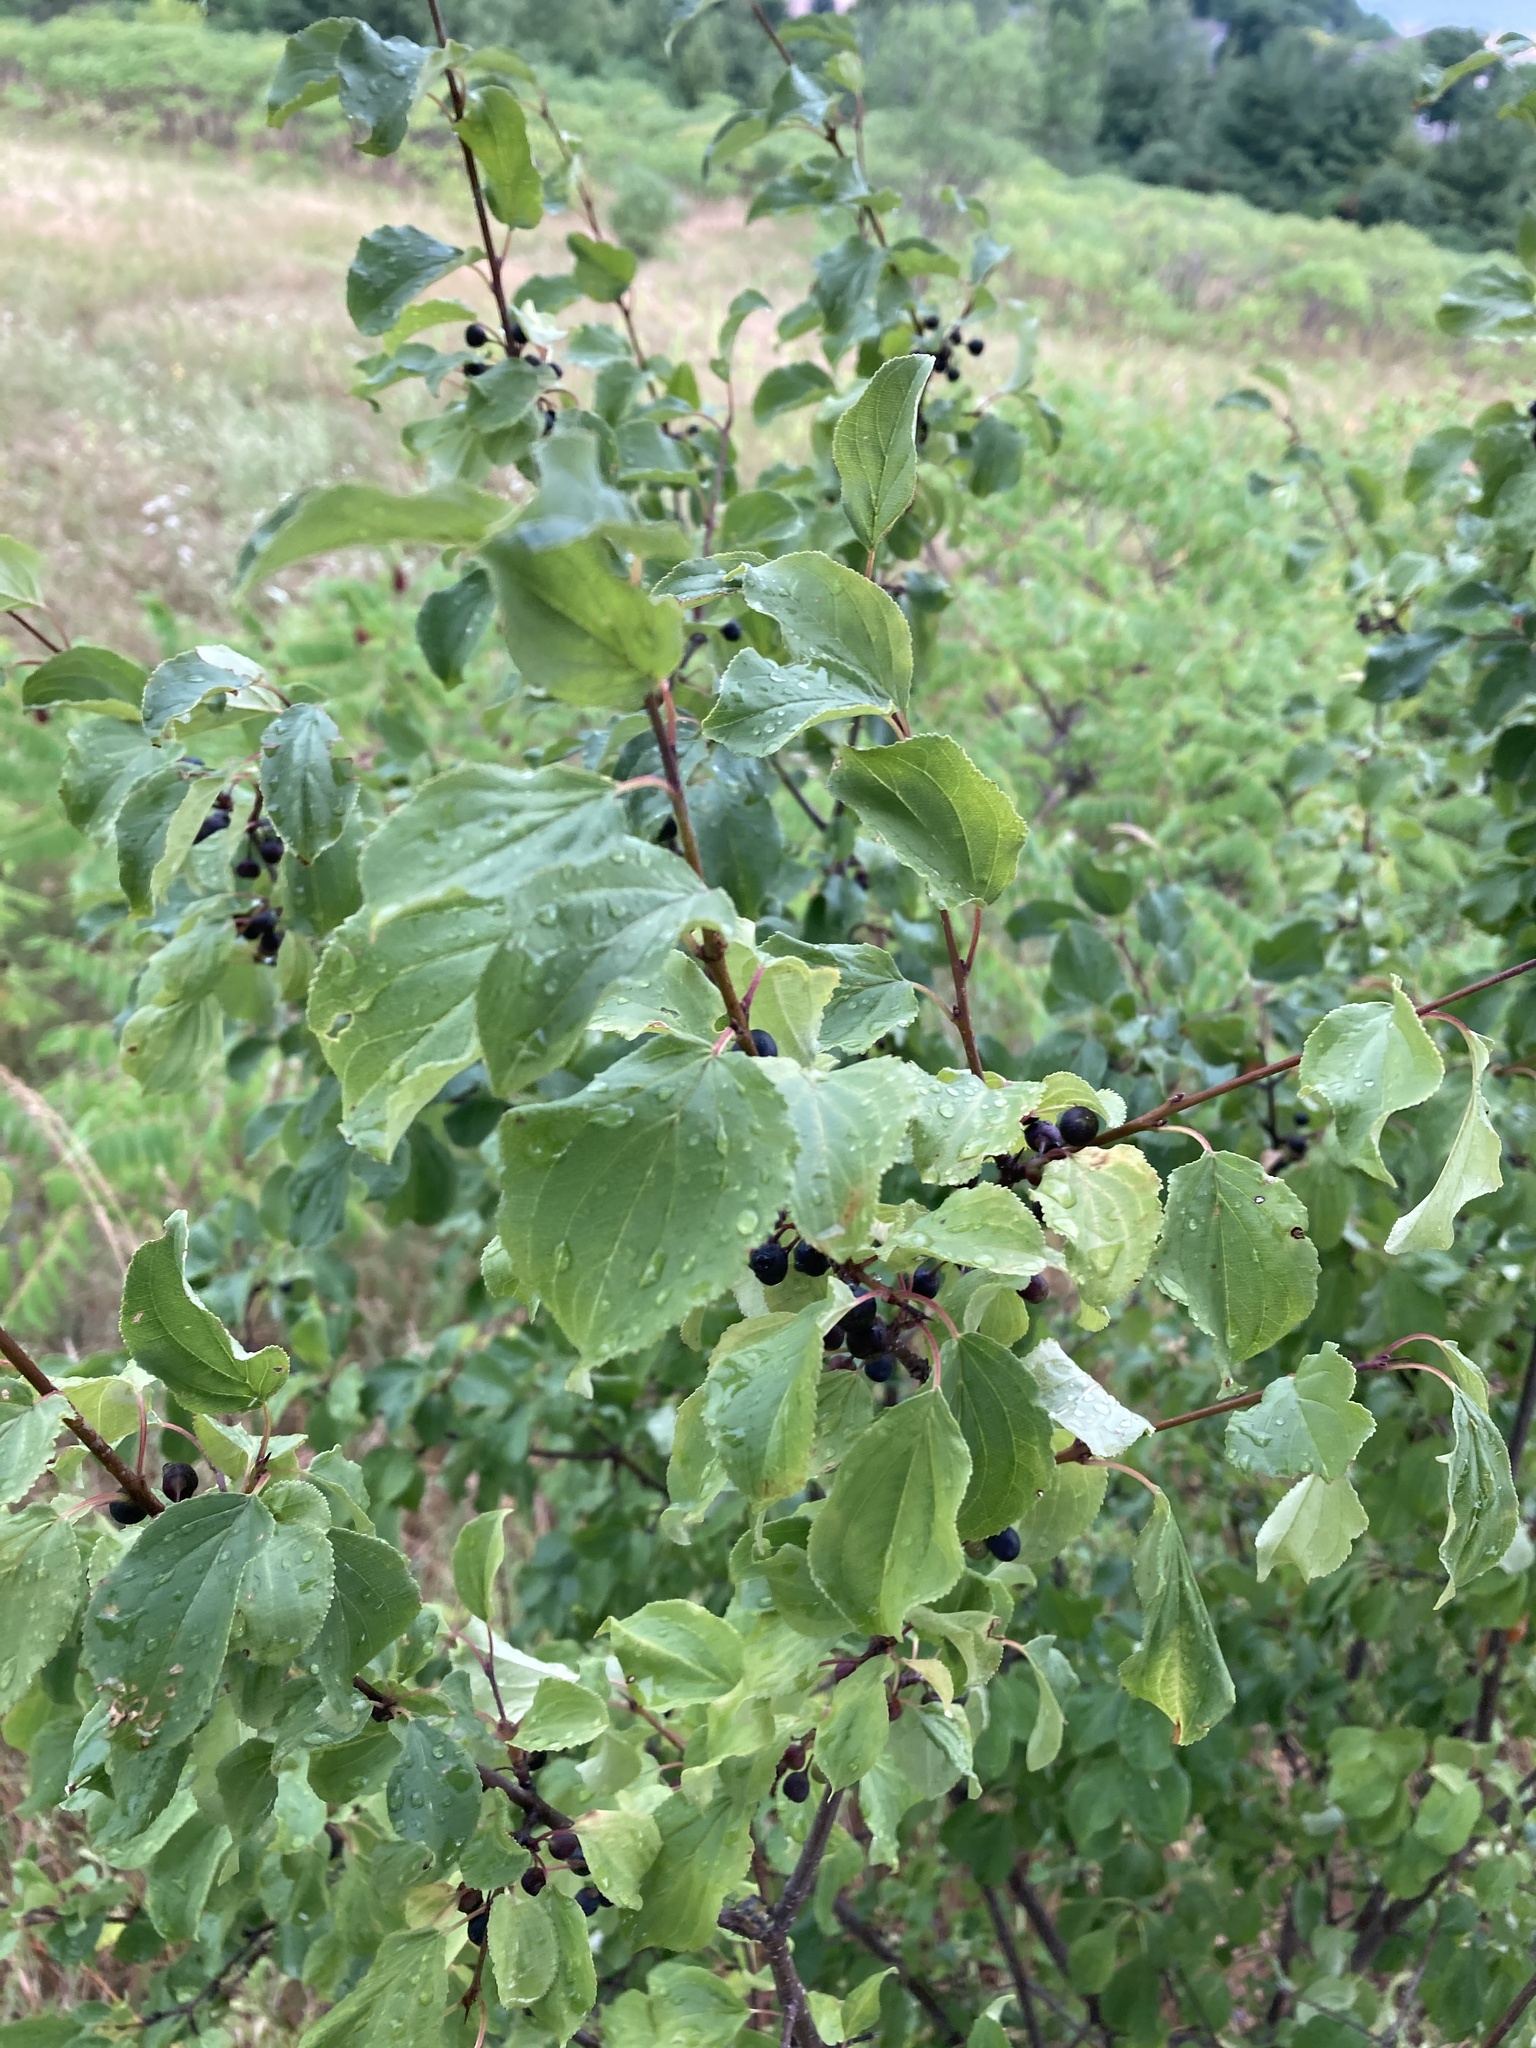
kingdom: Plantae
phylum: Tracheophyta
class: Magnoliopsida
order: Rosales
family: Rhamnaceae
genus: Rhamnus
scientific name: Rhamnus cathartica
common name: Common buckthorn
